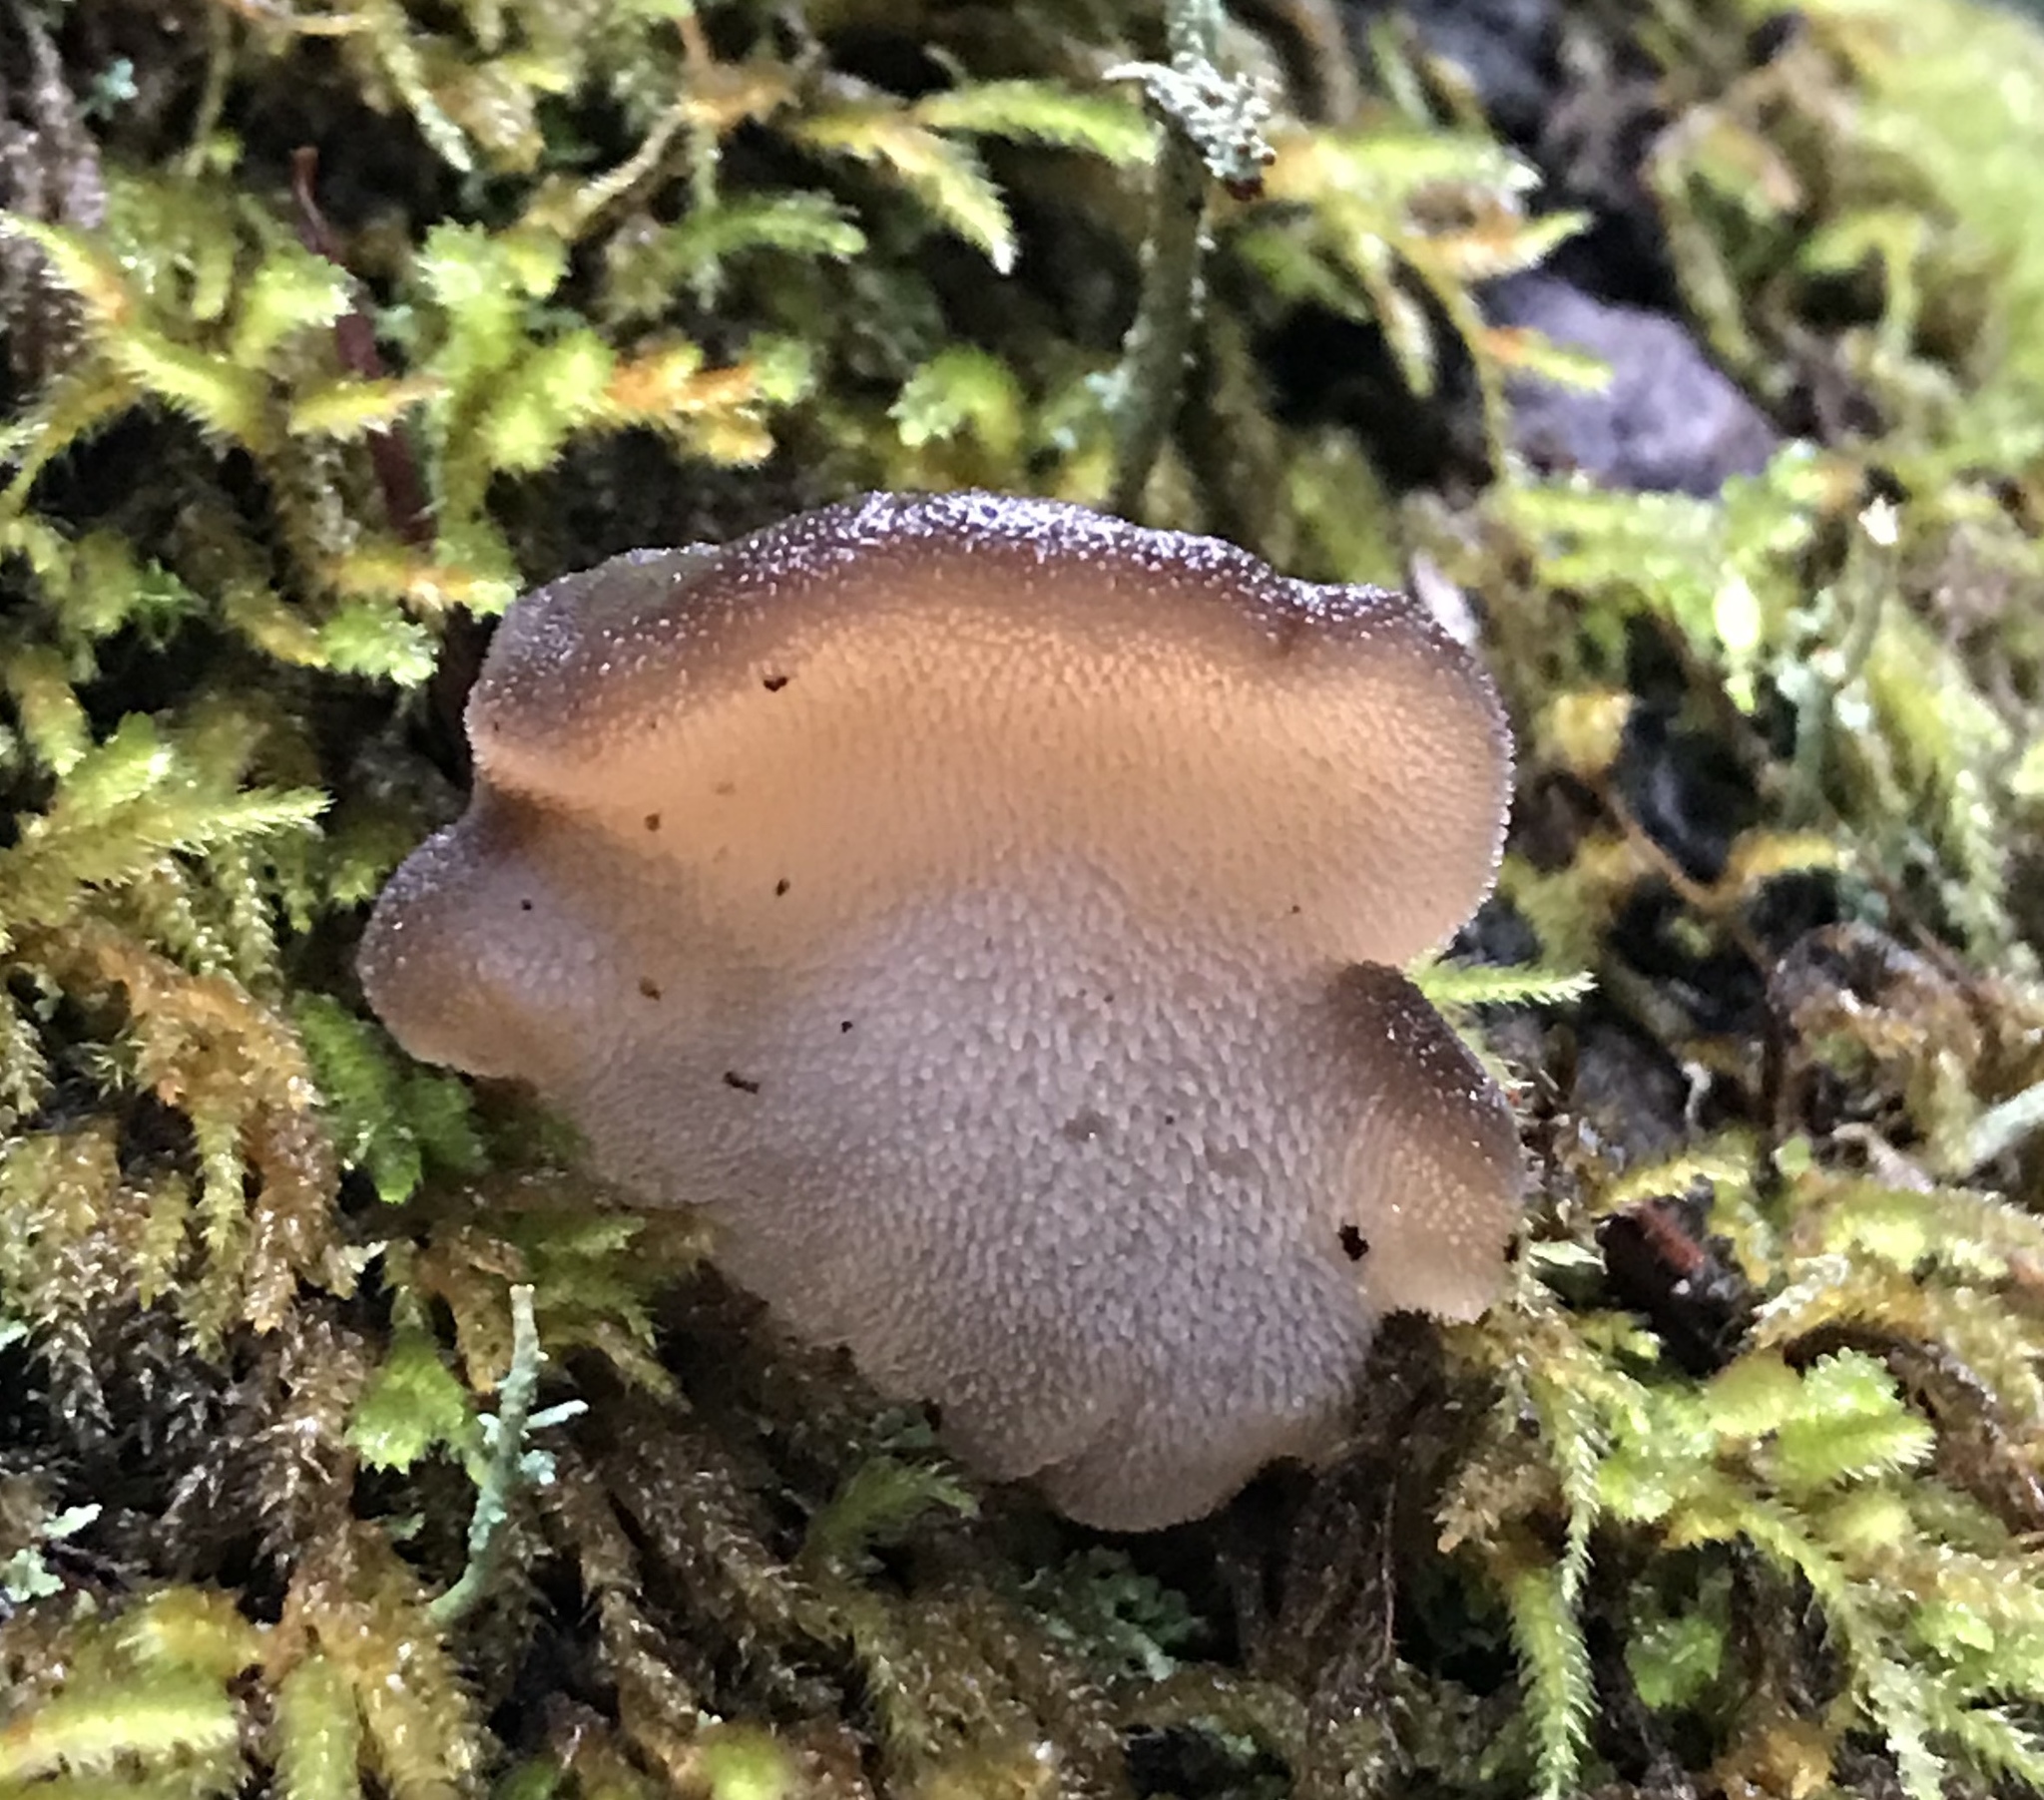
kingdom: Fungi
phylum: Basidiomycota
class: Agaricomycetes
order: Auriculariales
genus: Pseudohydnum
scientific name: Pseudohydnum gelatinosum
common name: Jelly tongue
